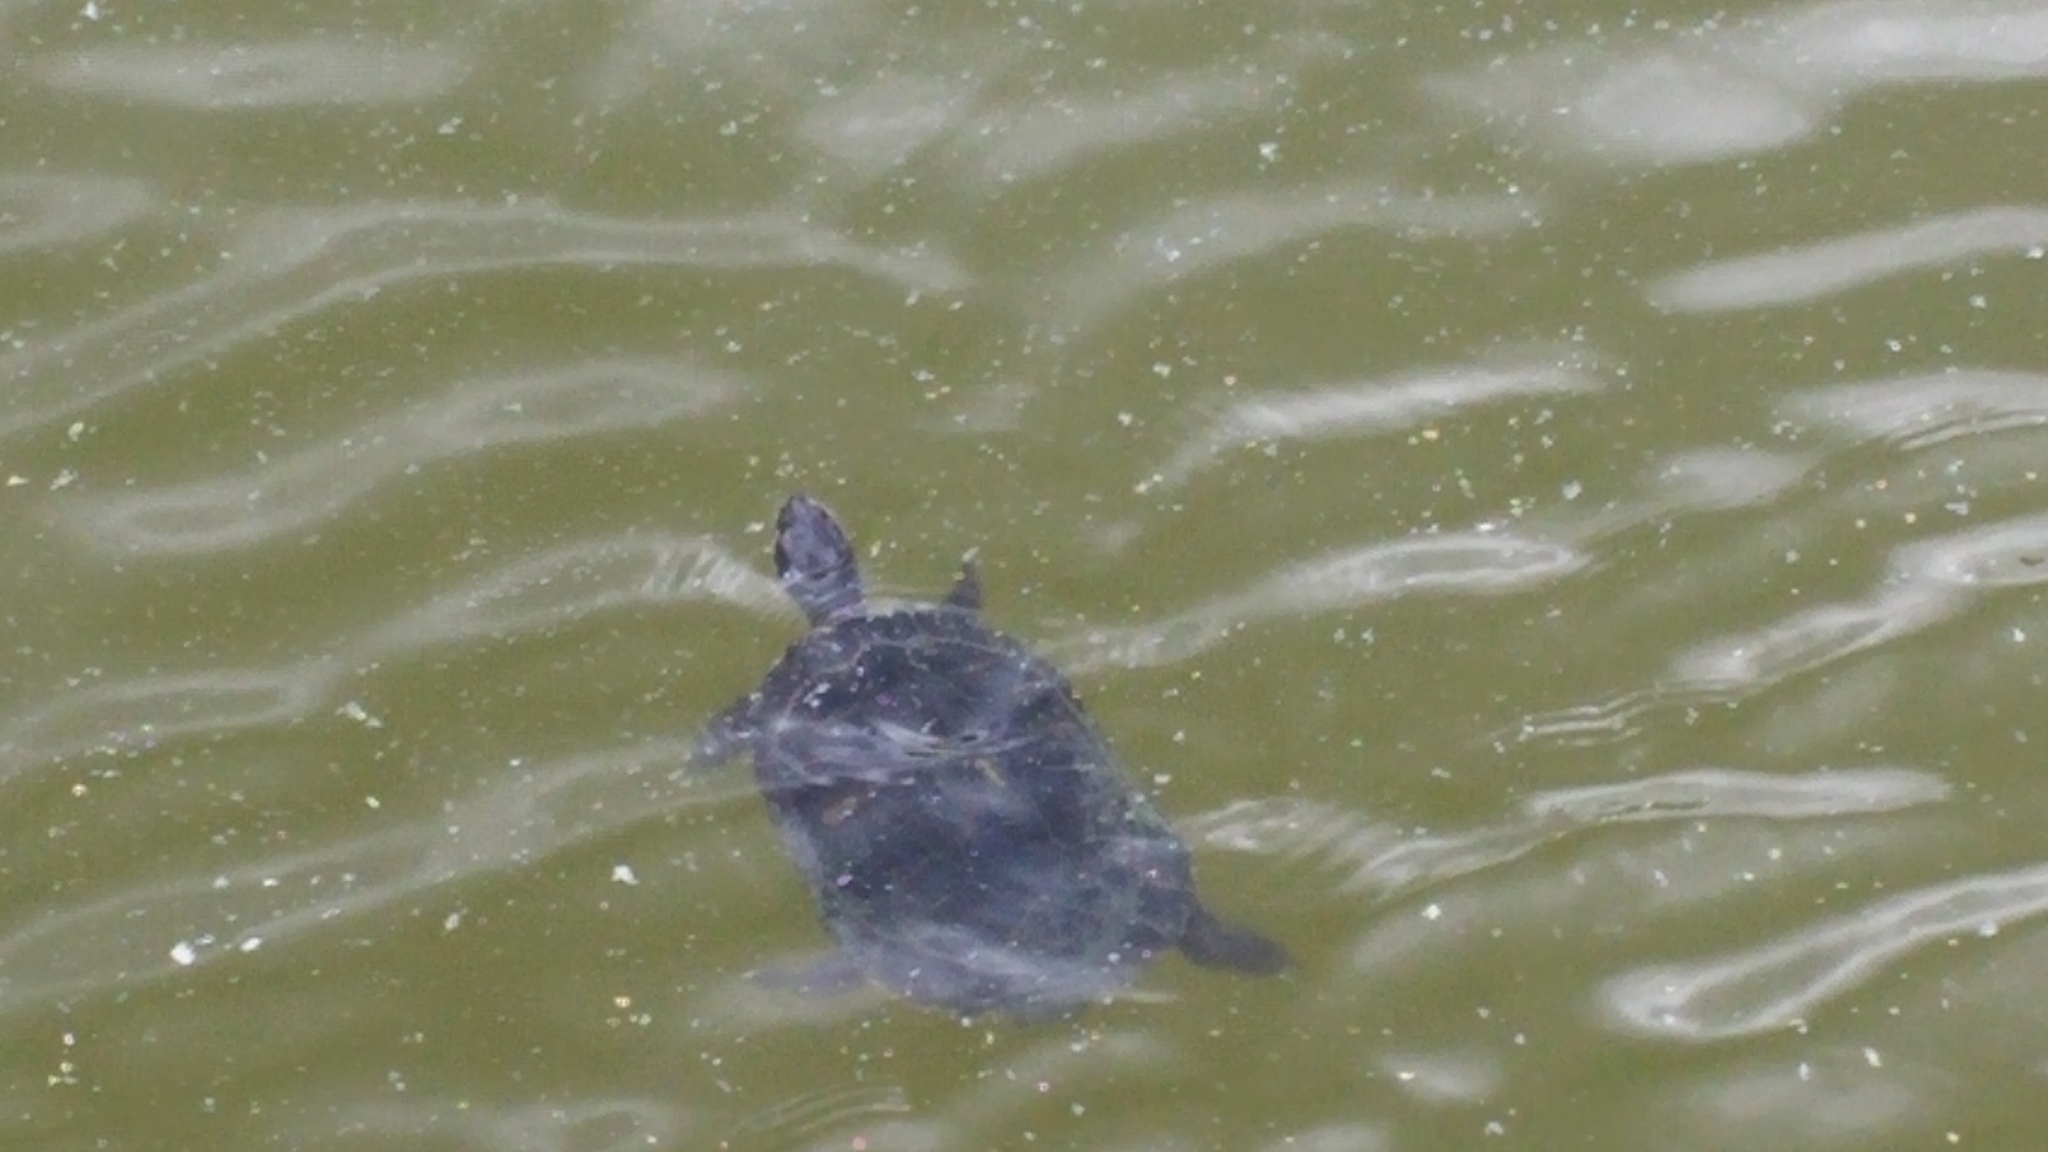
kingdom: Animalia
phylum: Chordata
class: Testudines
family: Emydidae
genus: Trachemys
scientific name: Trachemys scripta
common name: Slider
